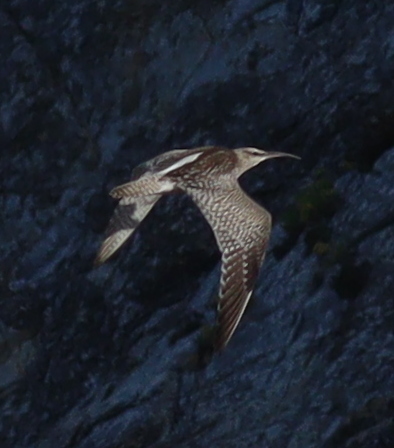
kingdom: Animalia
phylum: Chordata
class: Aves
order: Charadriiformes
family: Scolopacidae
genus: Numenius
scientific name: Numenius phaeopus
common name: Whimbrel
